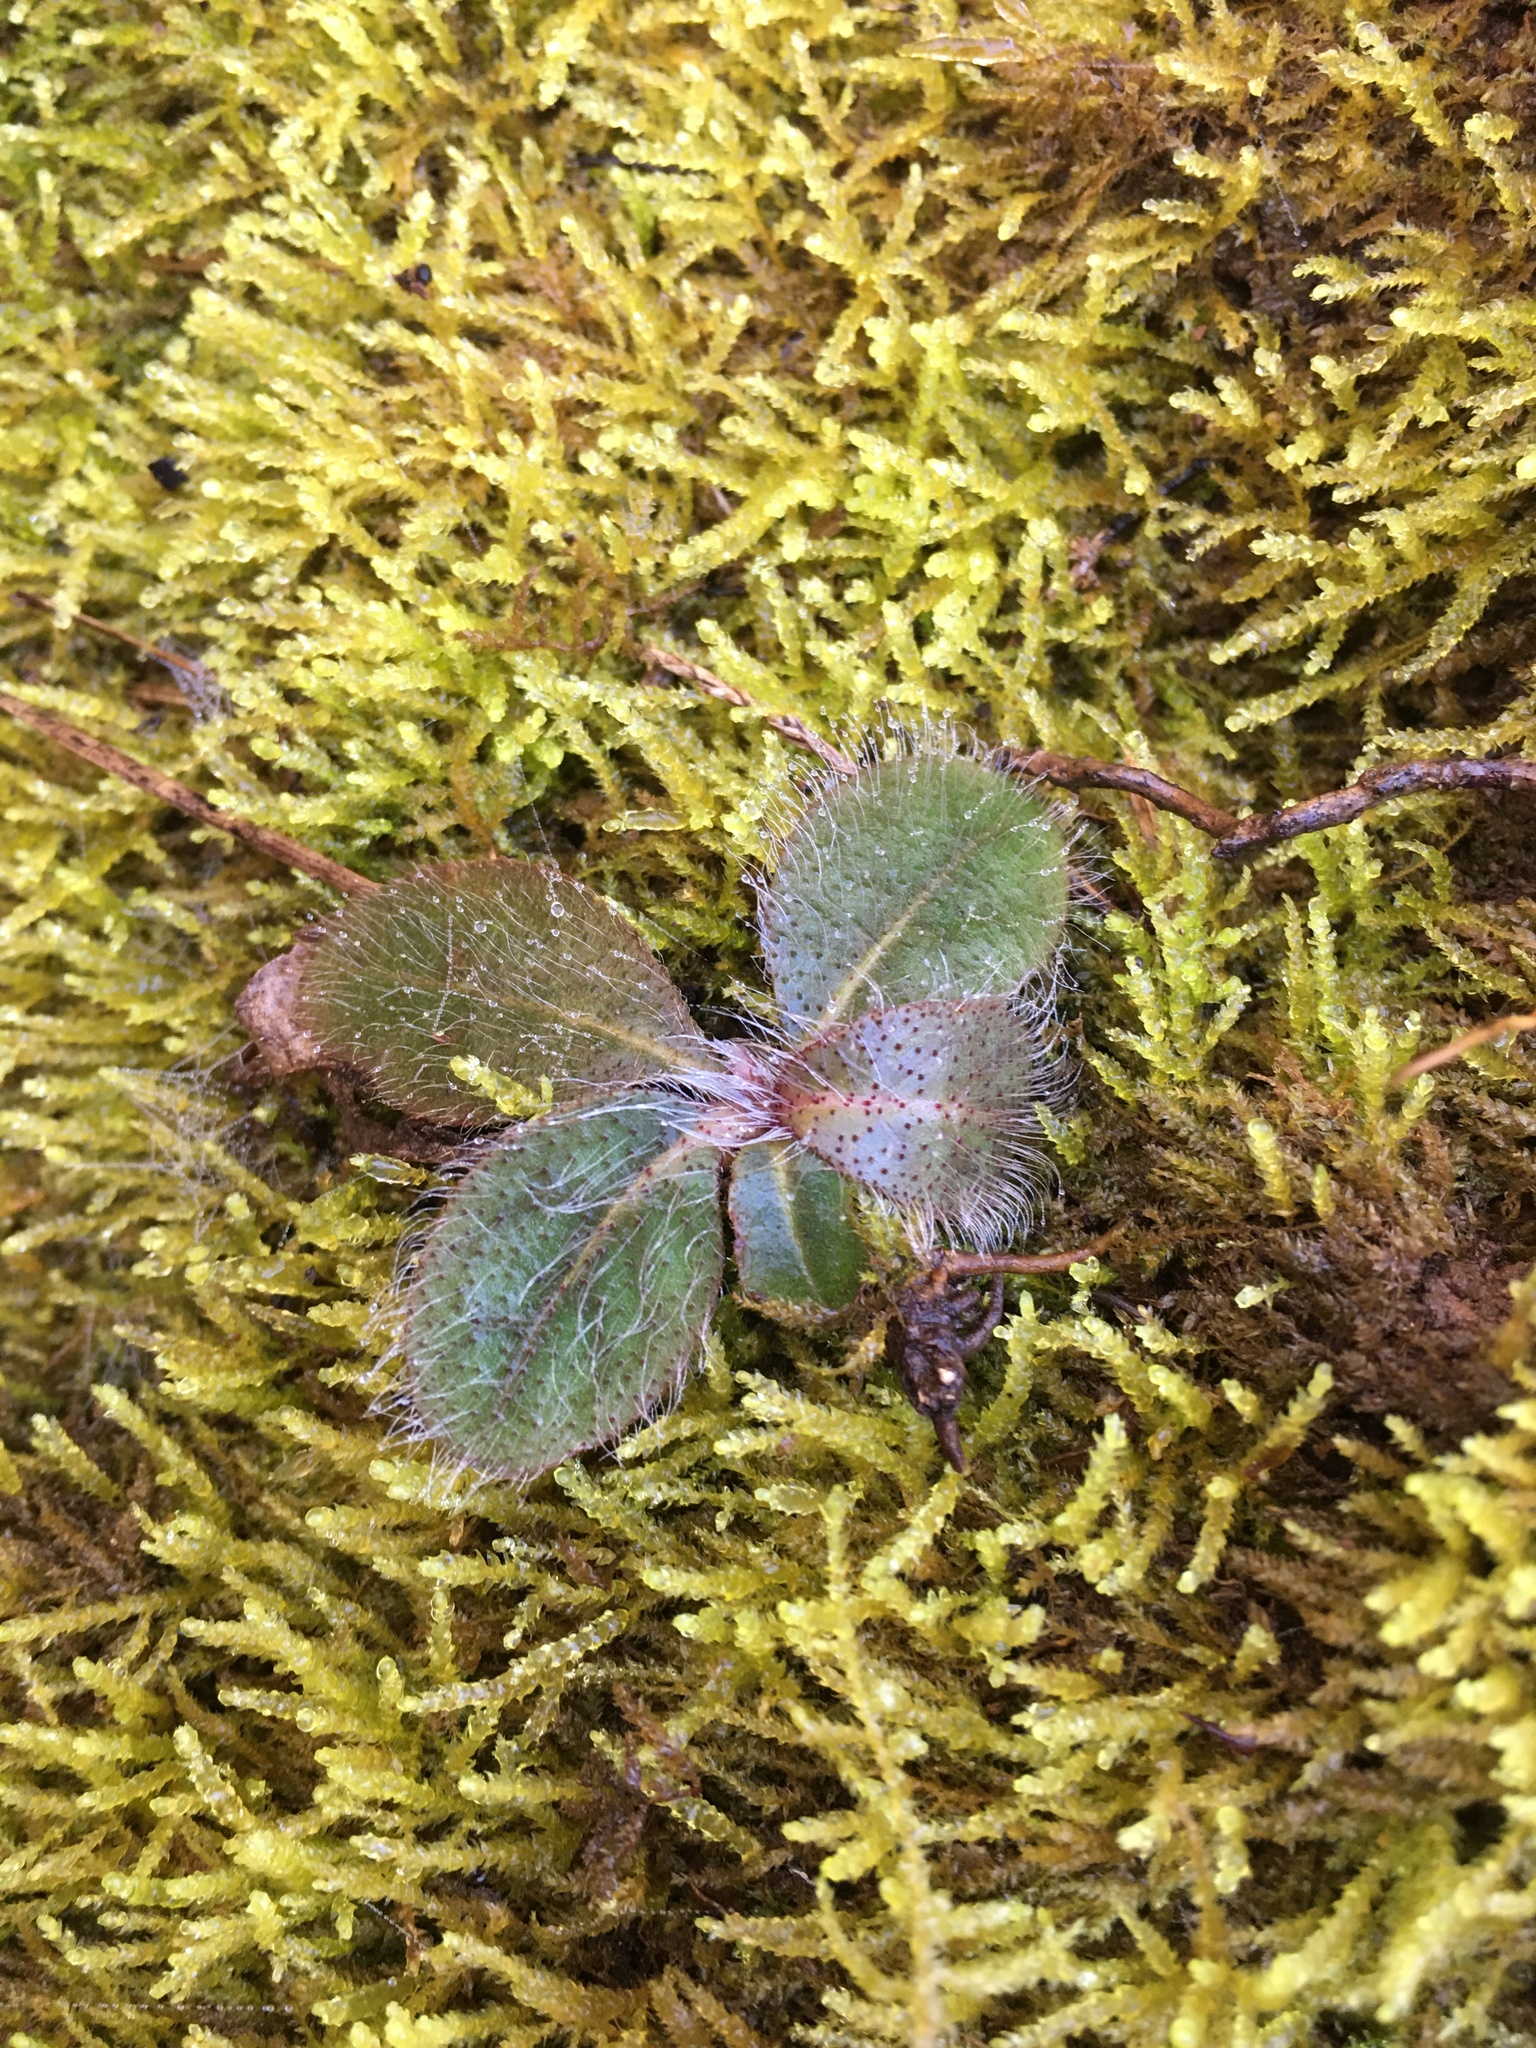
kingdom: Plantae
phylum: Tracheophyta
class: Magnoliopsida
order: Asterales
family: Asteraceae
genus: Hieracium
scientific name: Hieracium gronovii
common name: Beaked hawkweed
